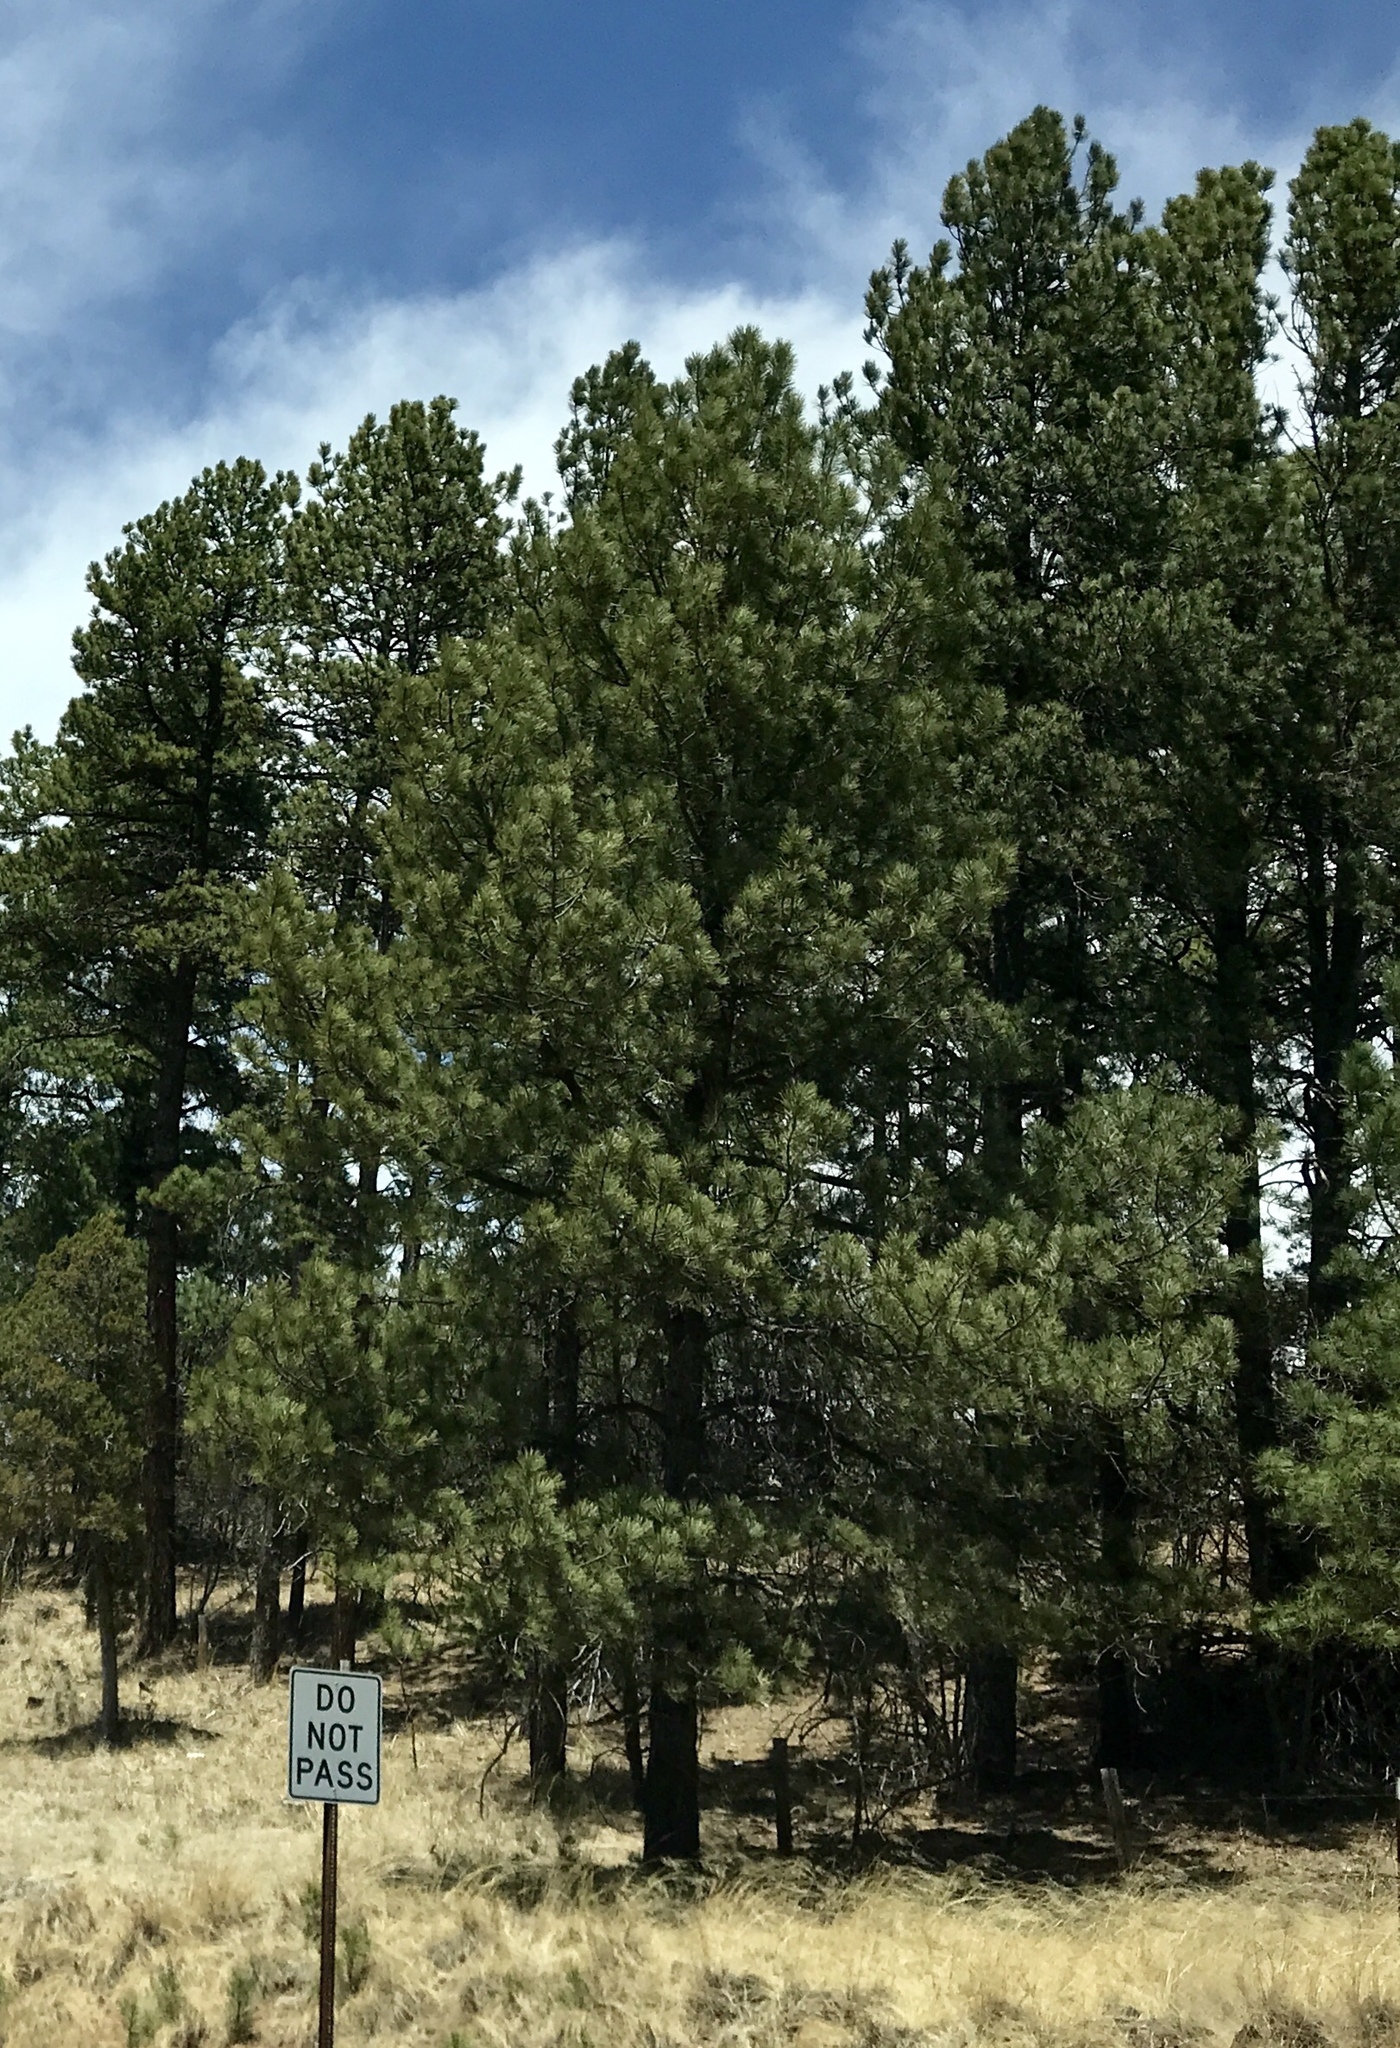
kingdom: Plantae
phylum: Tracheophyta
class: Pinopsida
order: Pinales
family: Pinaceae
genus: Pinus
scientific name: Pinus ponderosa
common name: Western yellow-pine
